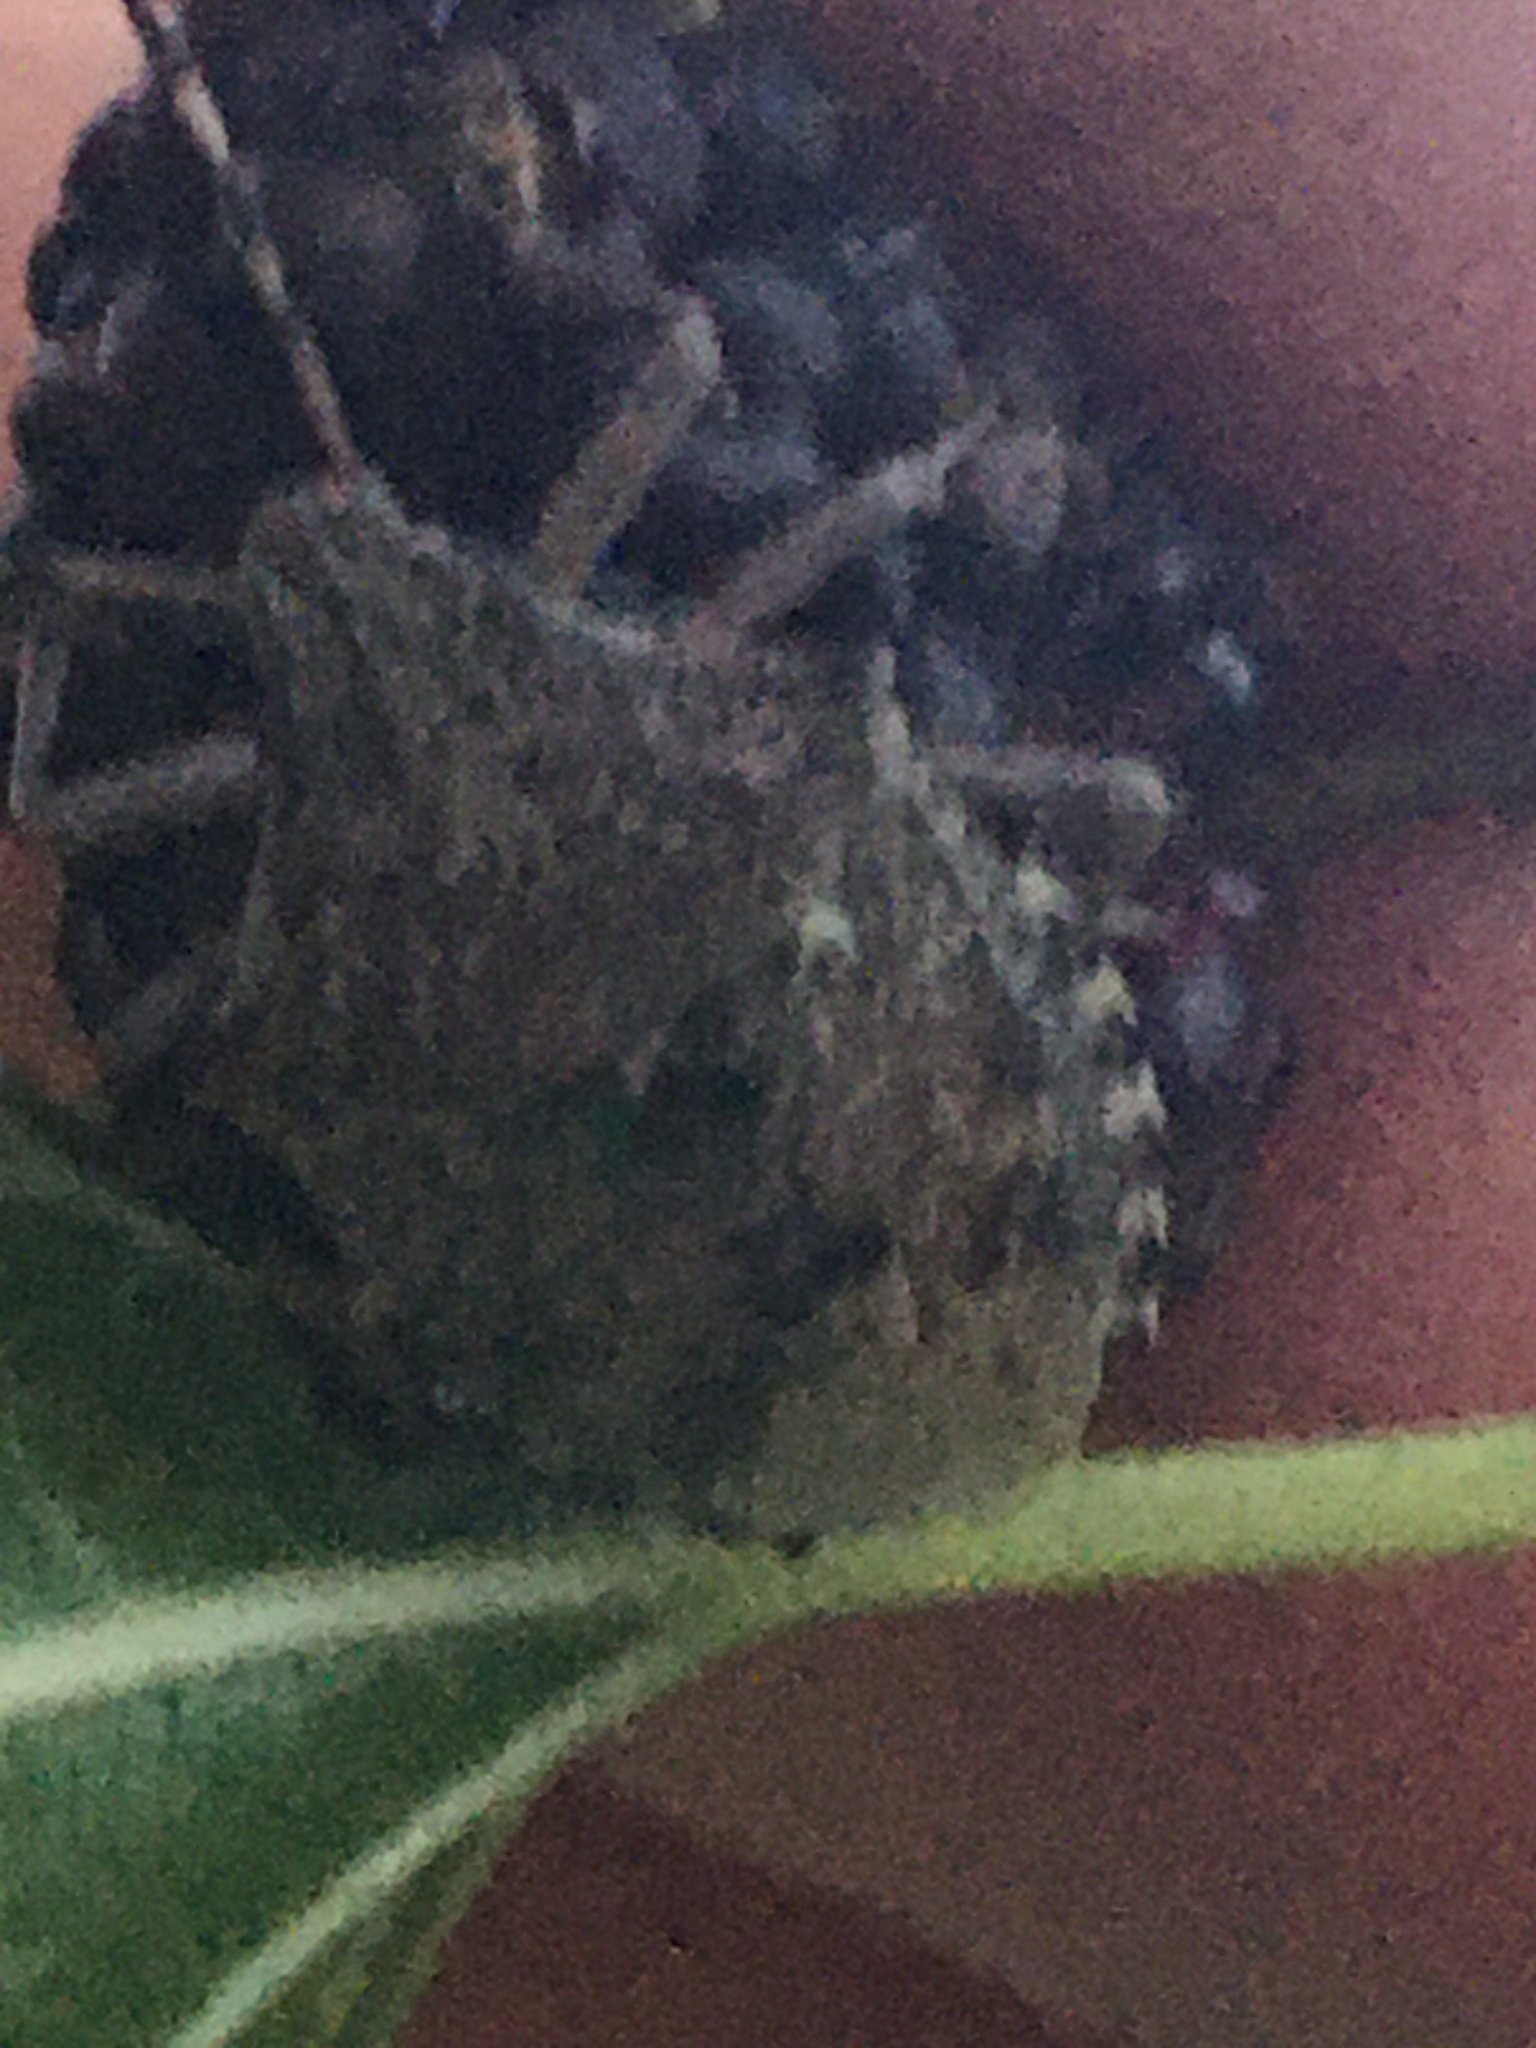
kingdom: Animalia
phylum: Arthropoda
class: Insecta
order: Hemiptera
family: Pentatomidae
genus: Rhaphigaster
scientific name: Rhaphigaster nebulosa
